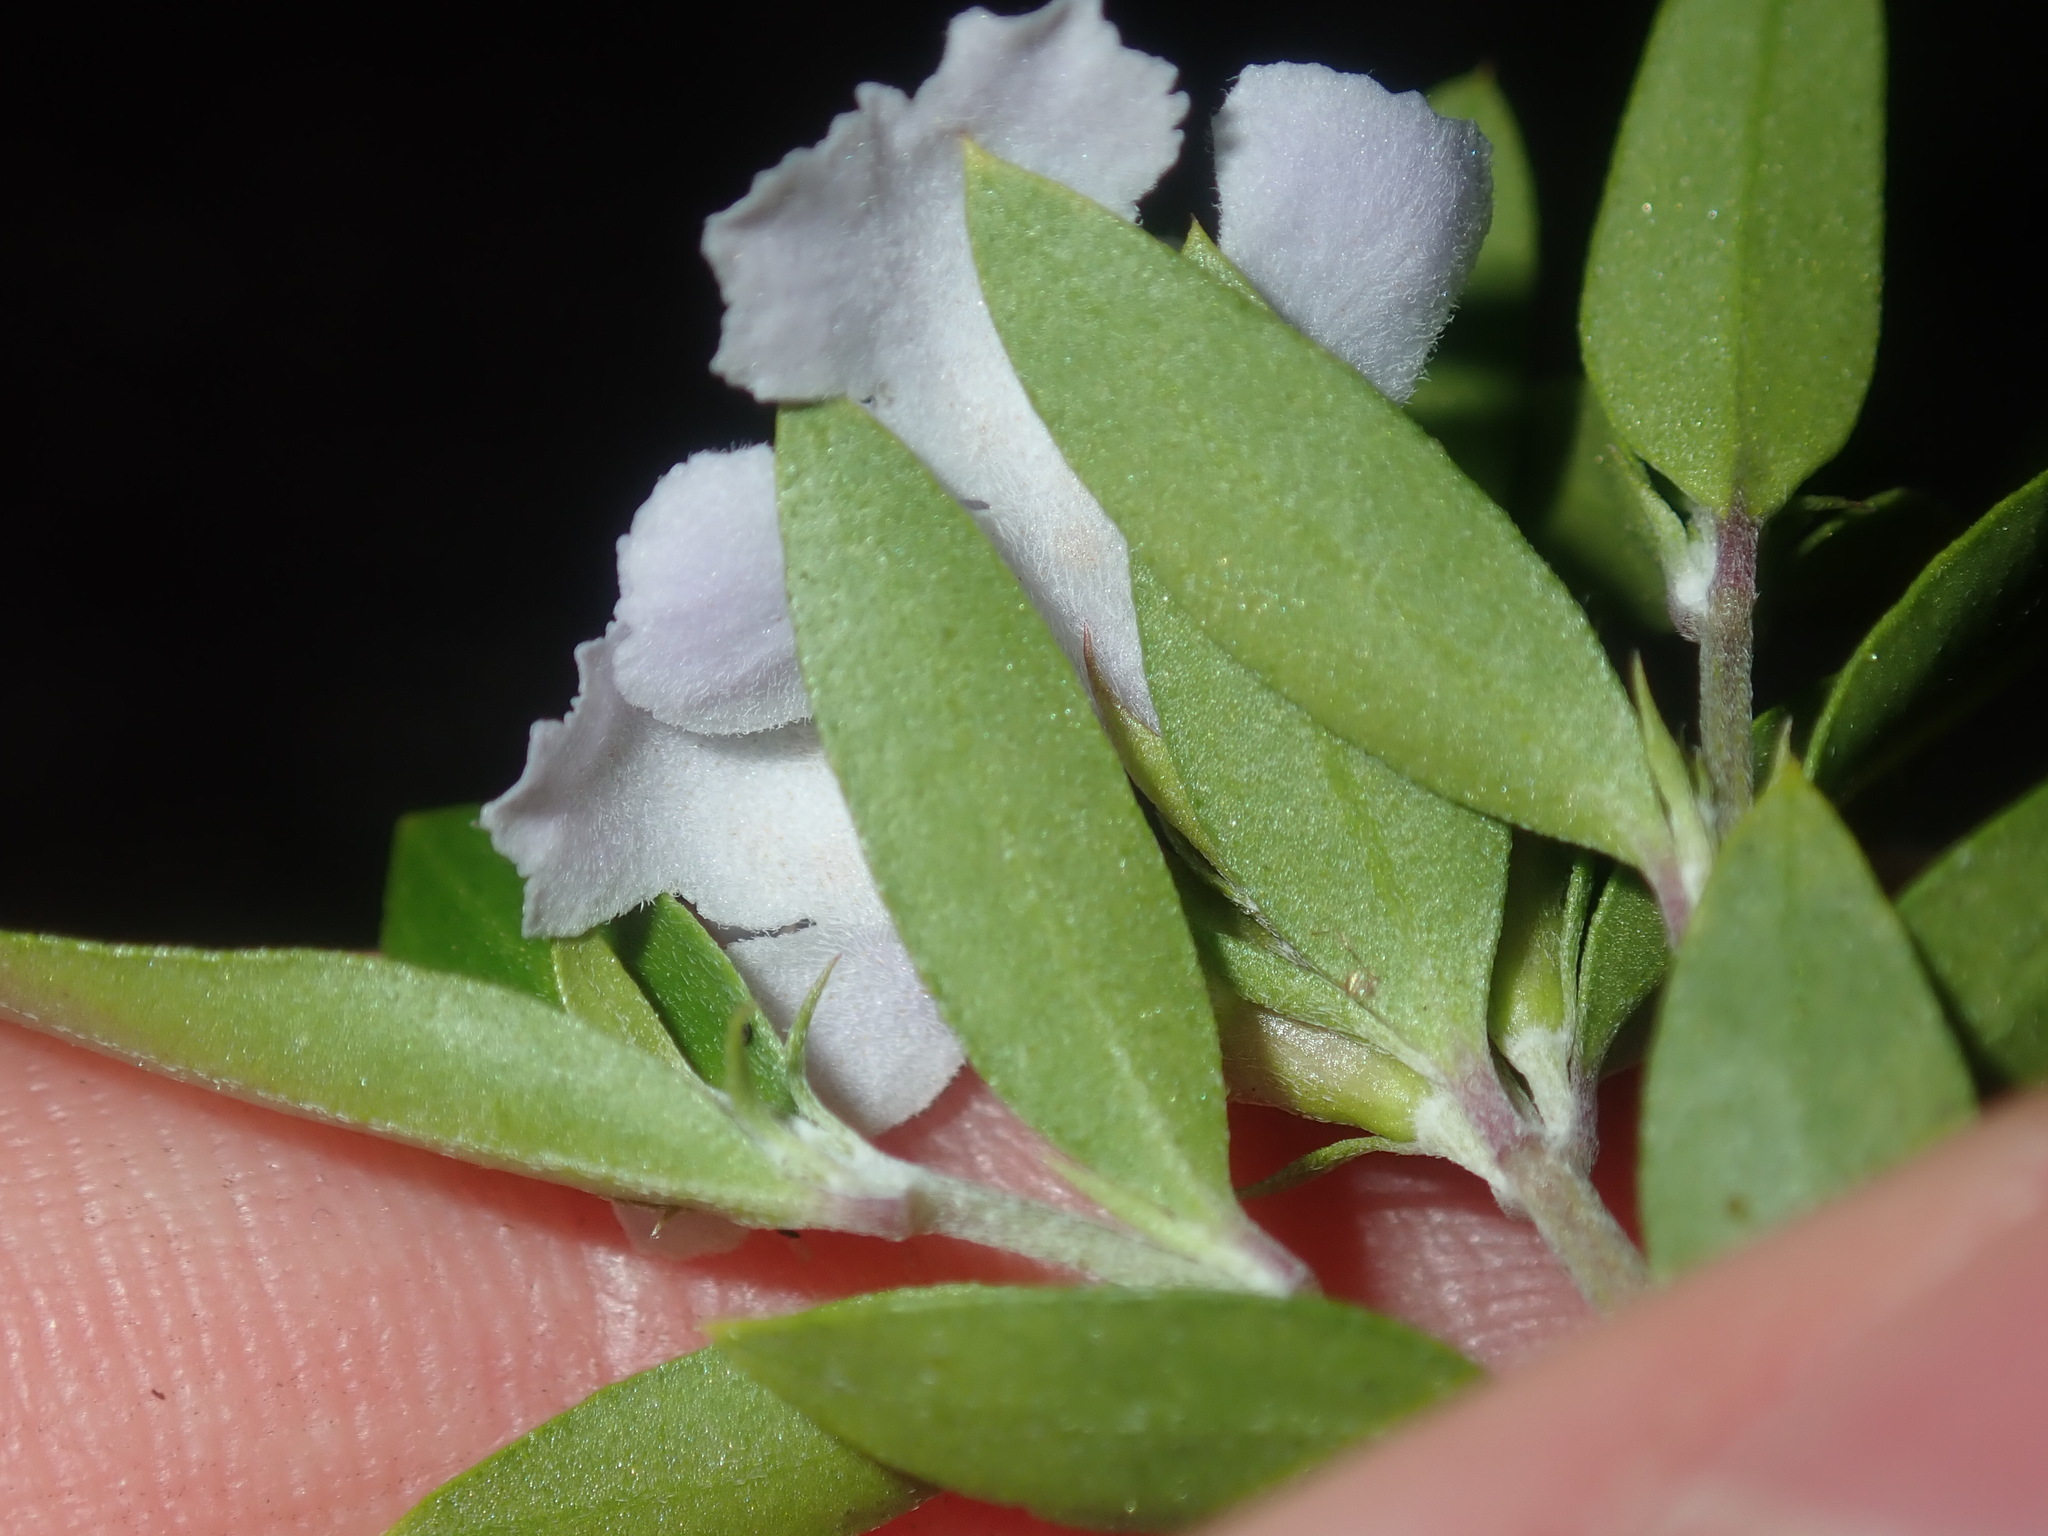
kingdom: Plantae
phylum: Tracheophyta
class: Magnoliopsida
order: Lamiales
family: Lamiaceae
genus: Westringia
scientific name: Westringia amabilis
